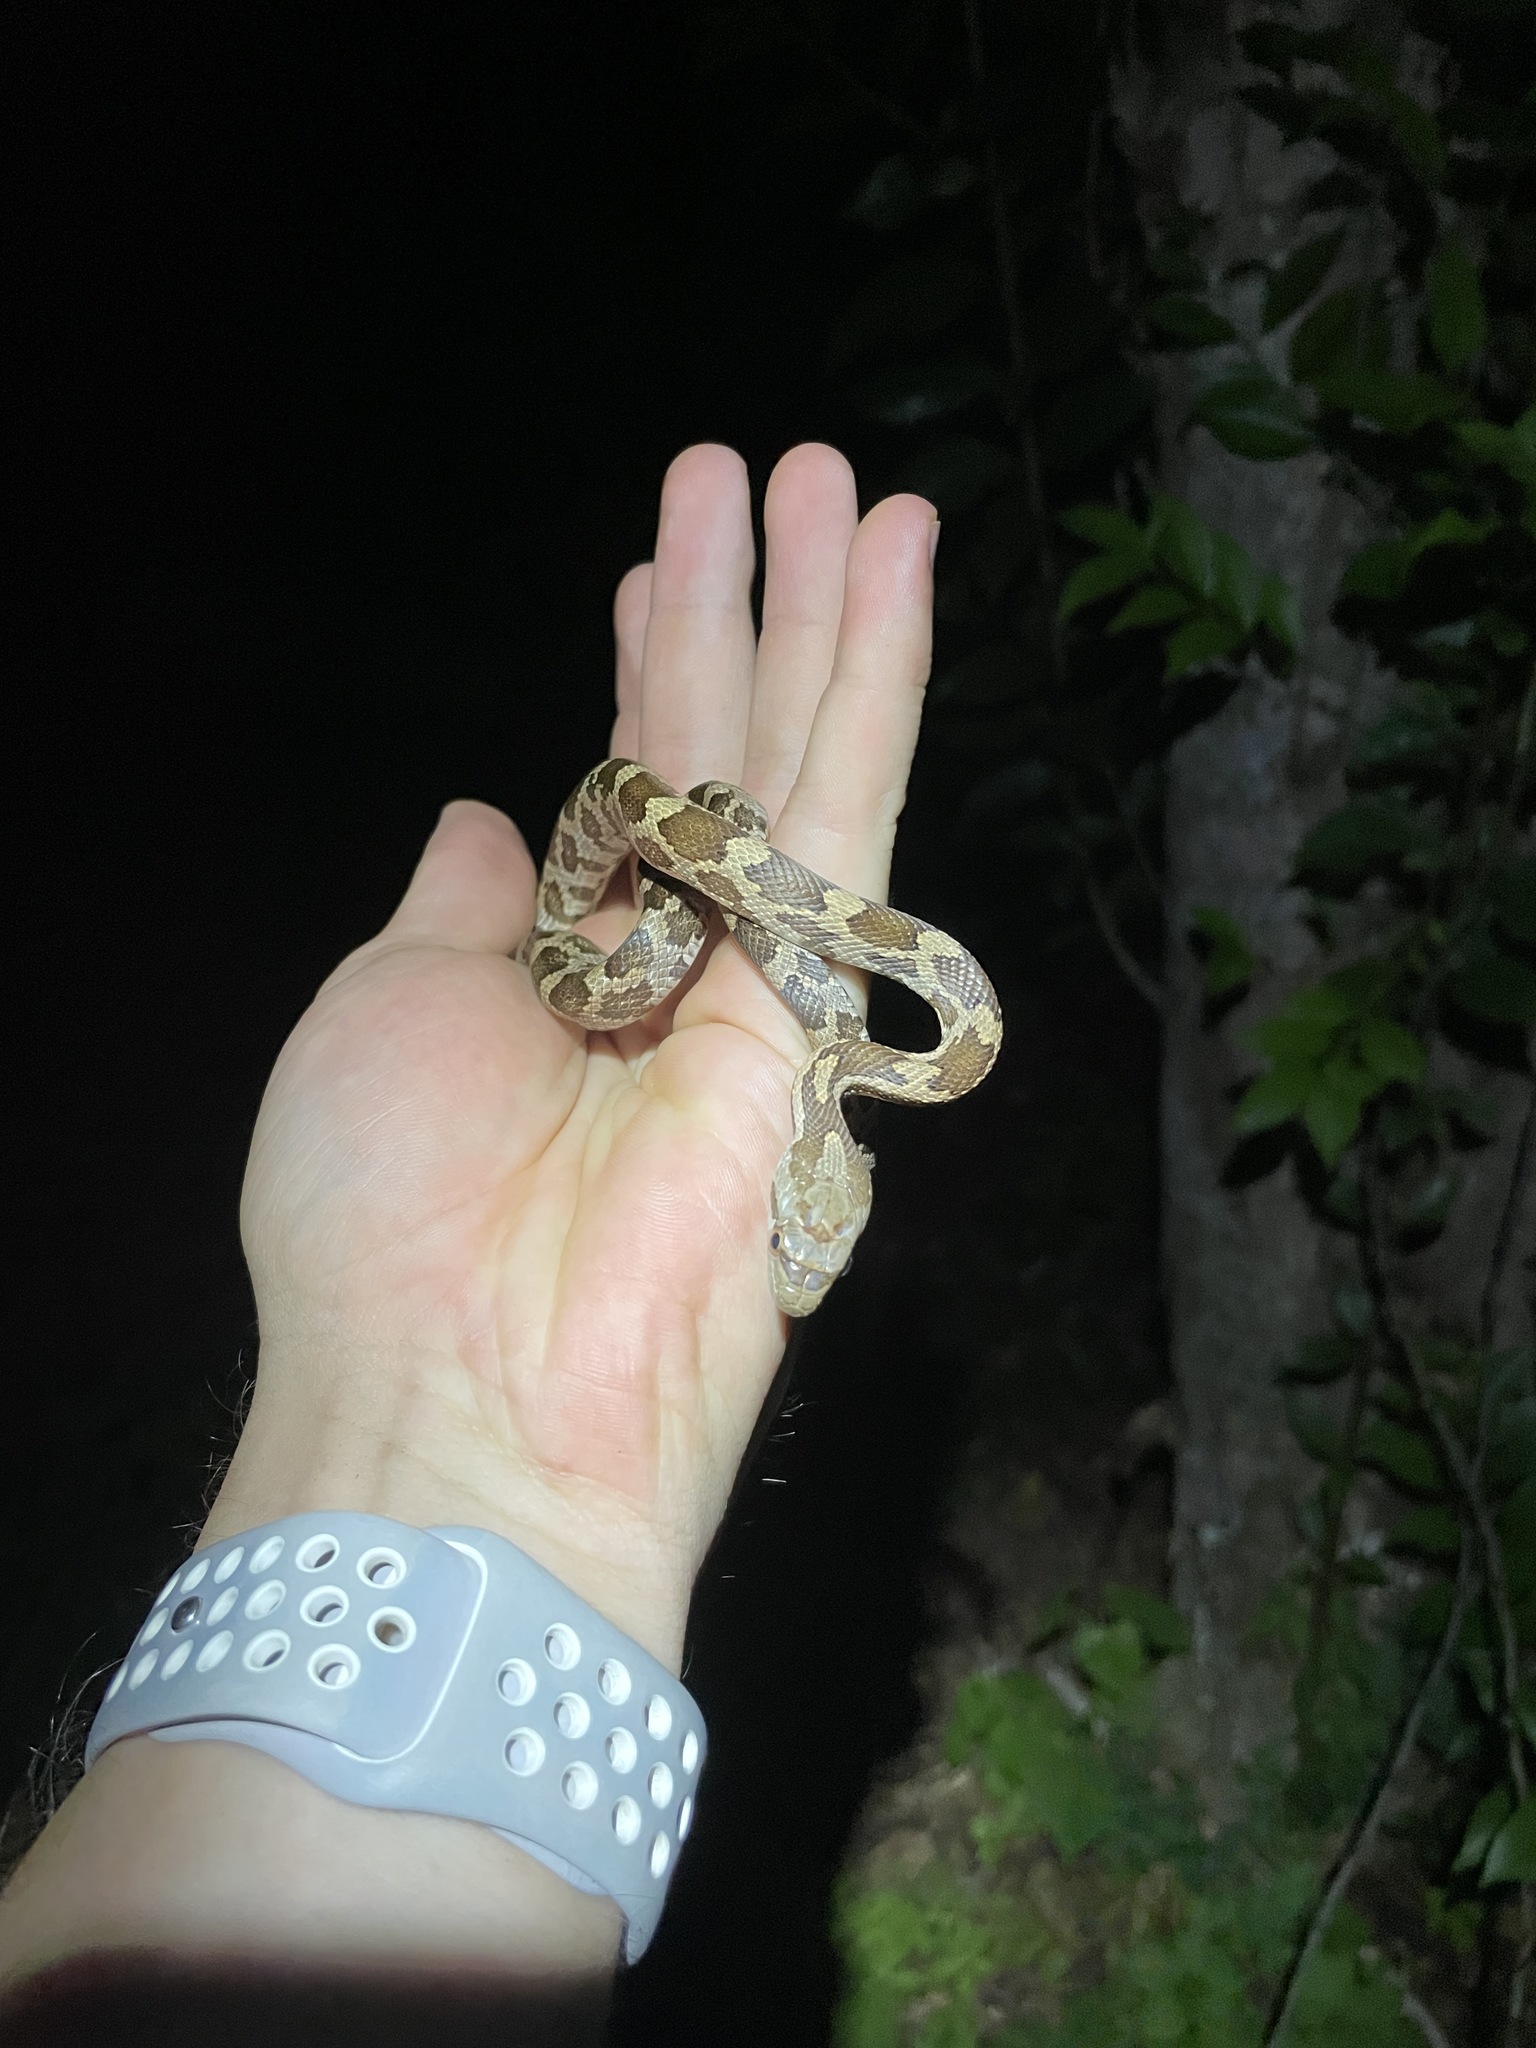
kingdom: Animalia
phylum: Chordata
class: Squamata
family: Colubridae
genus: Pantherophis
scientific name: Pantherophis obsoletus
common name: Black rat snake
